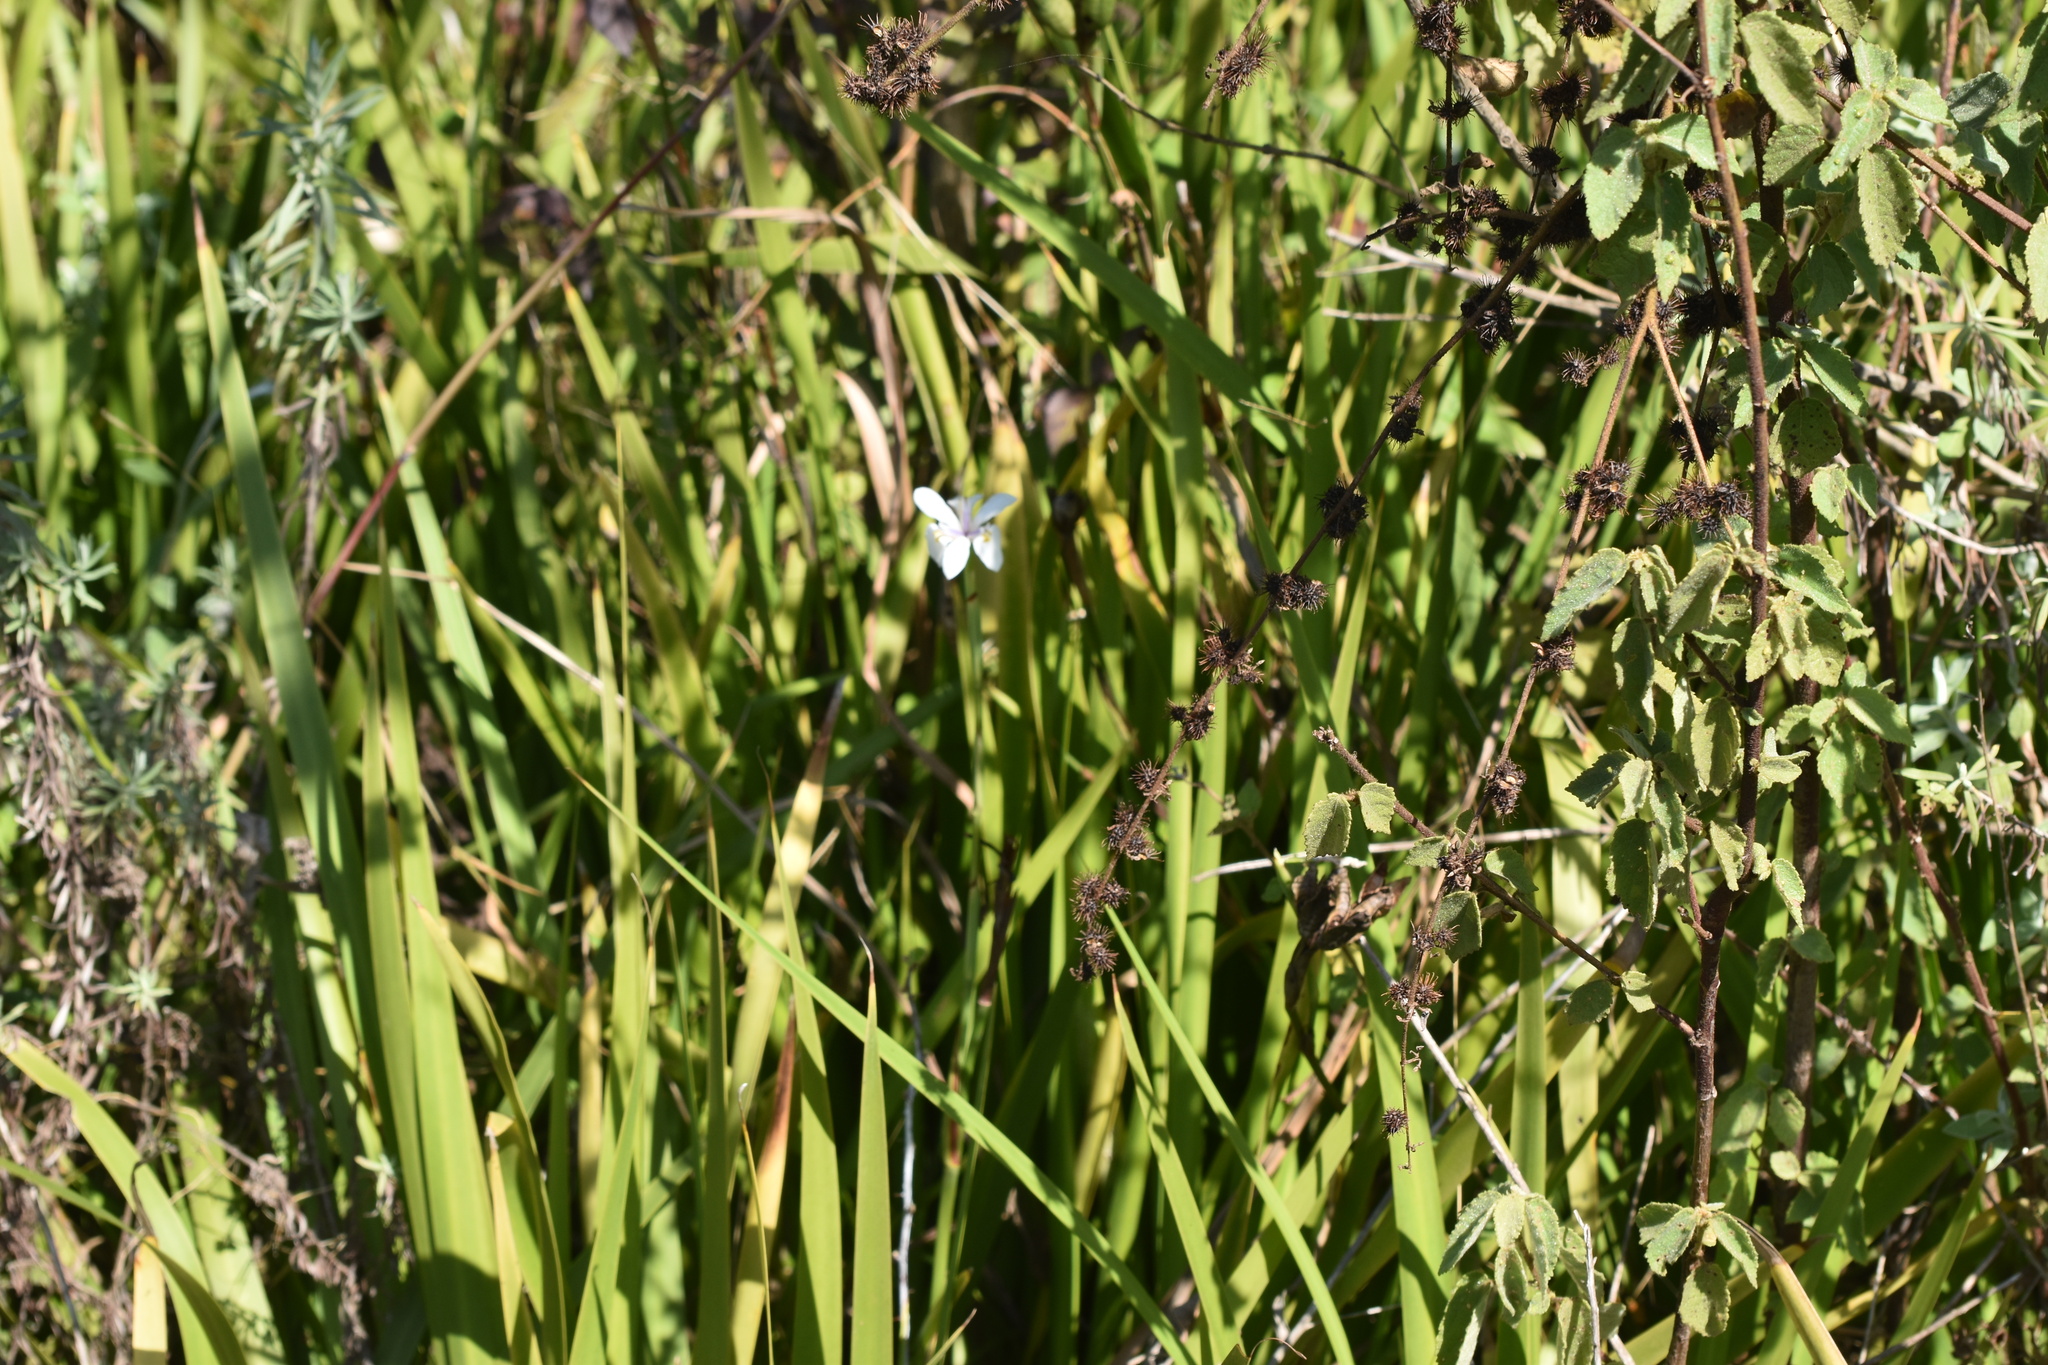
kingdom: Plantae
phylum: Tracheophyta
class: Liliopsida
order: Asparagales
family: Iridaceae
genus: Dietes
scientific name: Dietes iridioides
